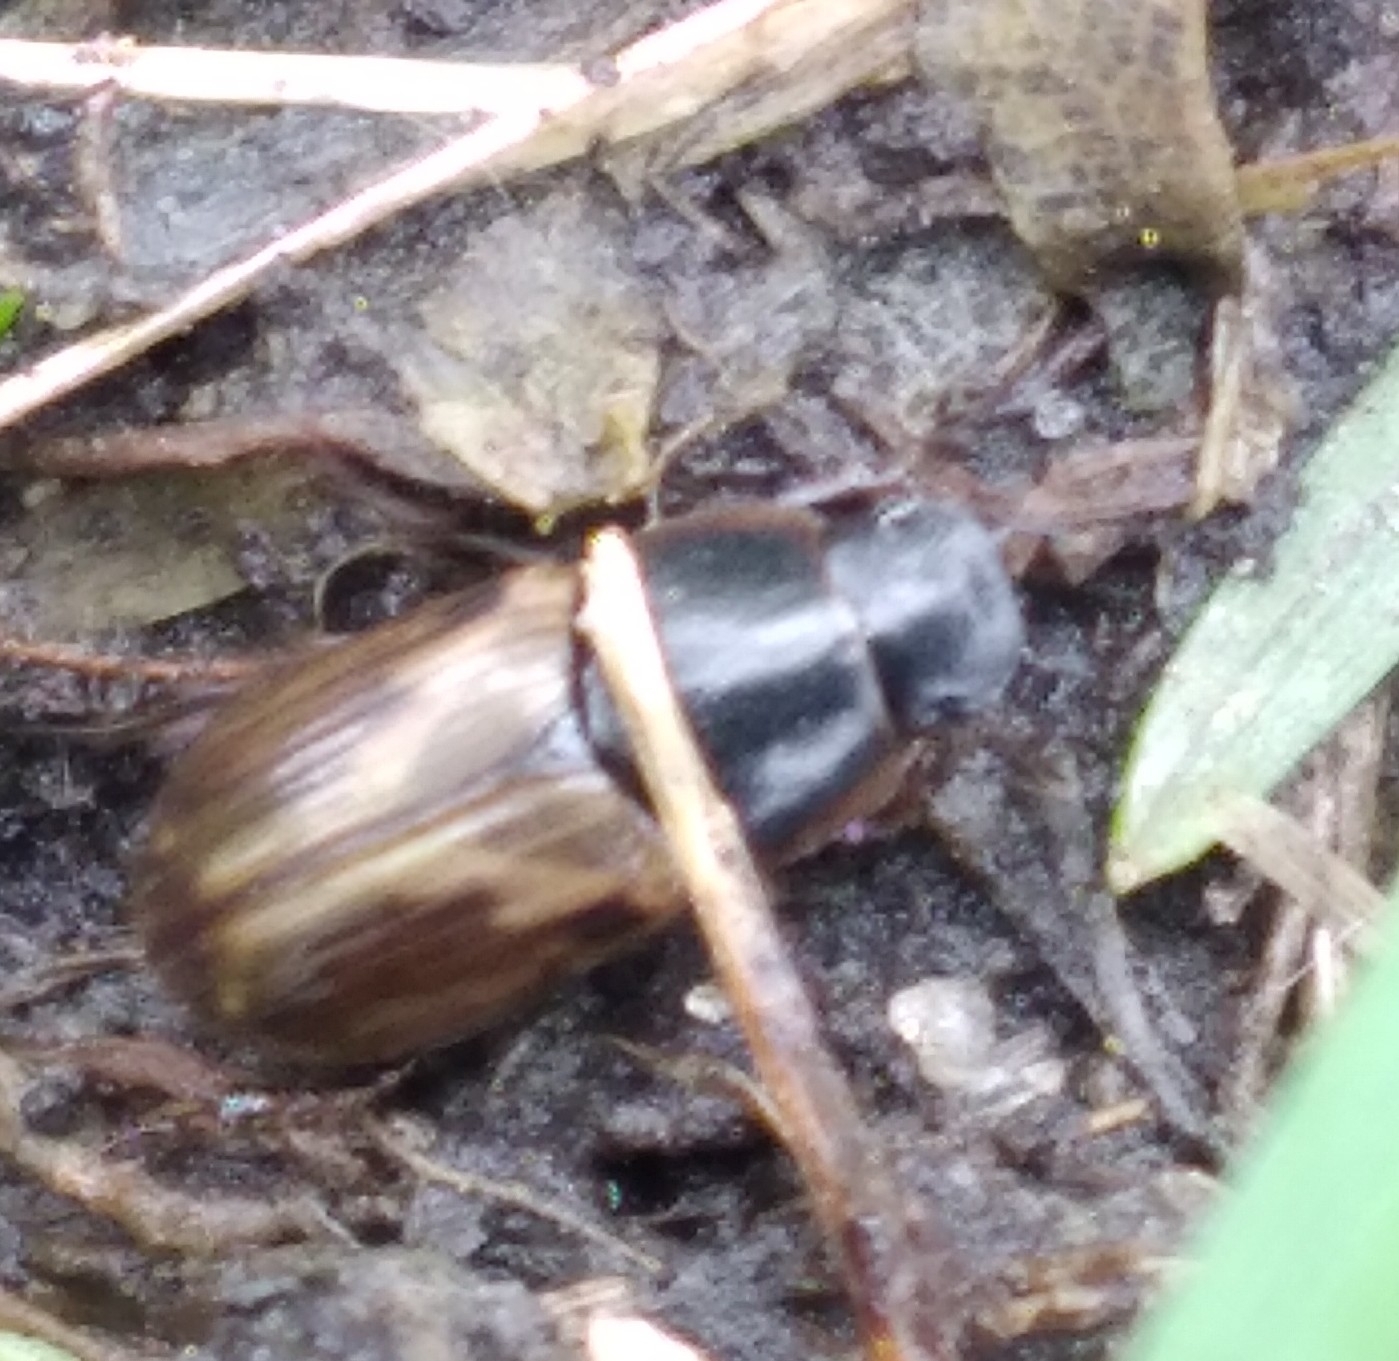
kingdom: Animalia
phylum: Arthropoda
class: Insecta
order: Coleoptera
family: Scarabaeidae
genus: Melinopterus
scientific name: Melinopterus prodromus
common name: Spring small dung beetle
